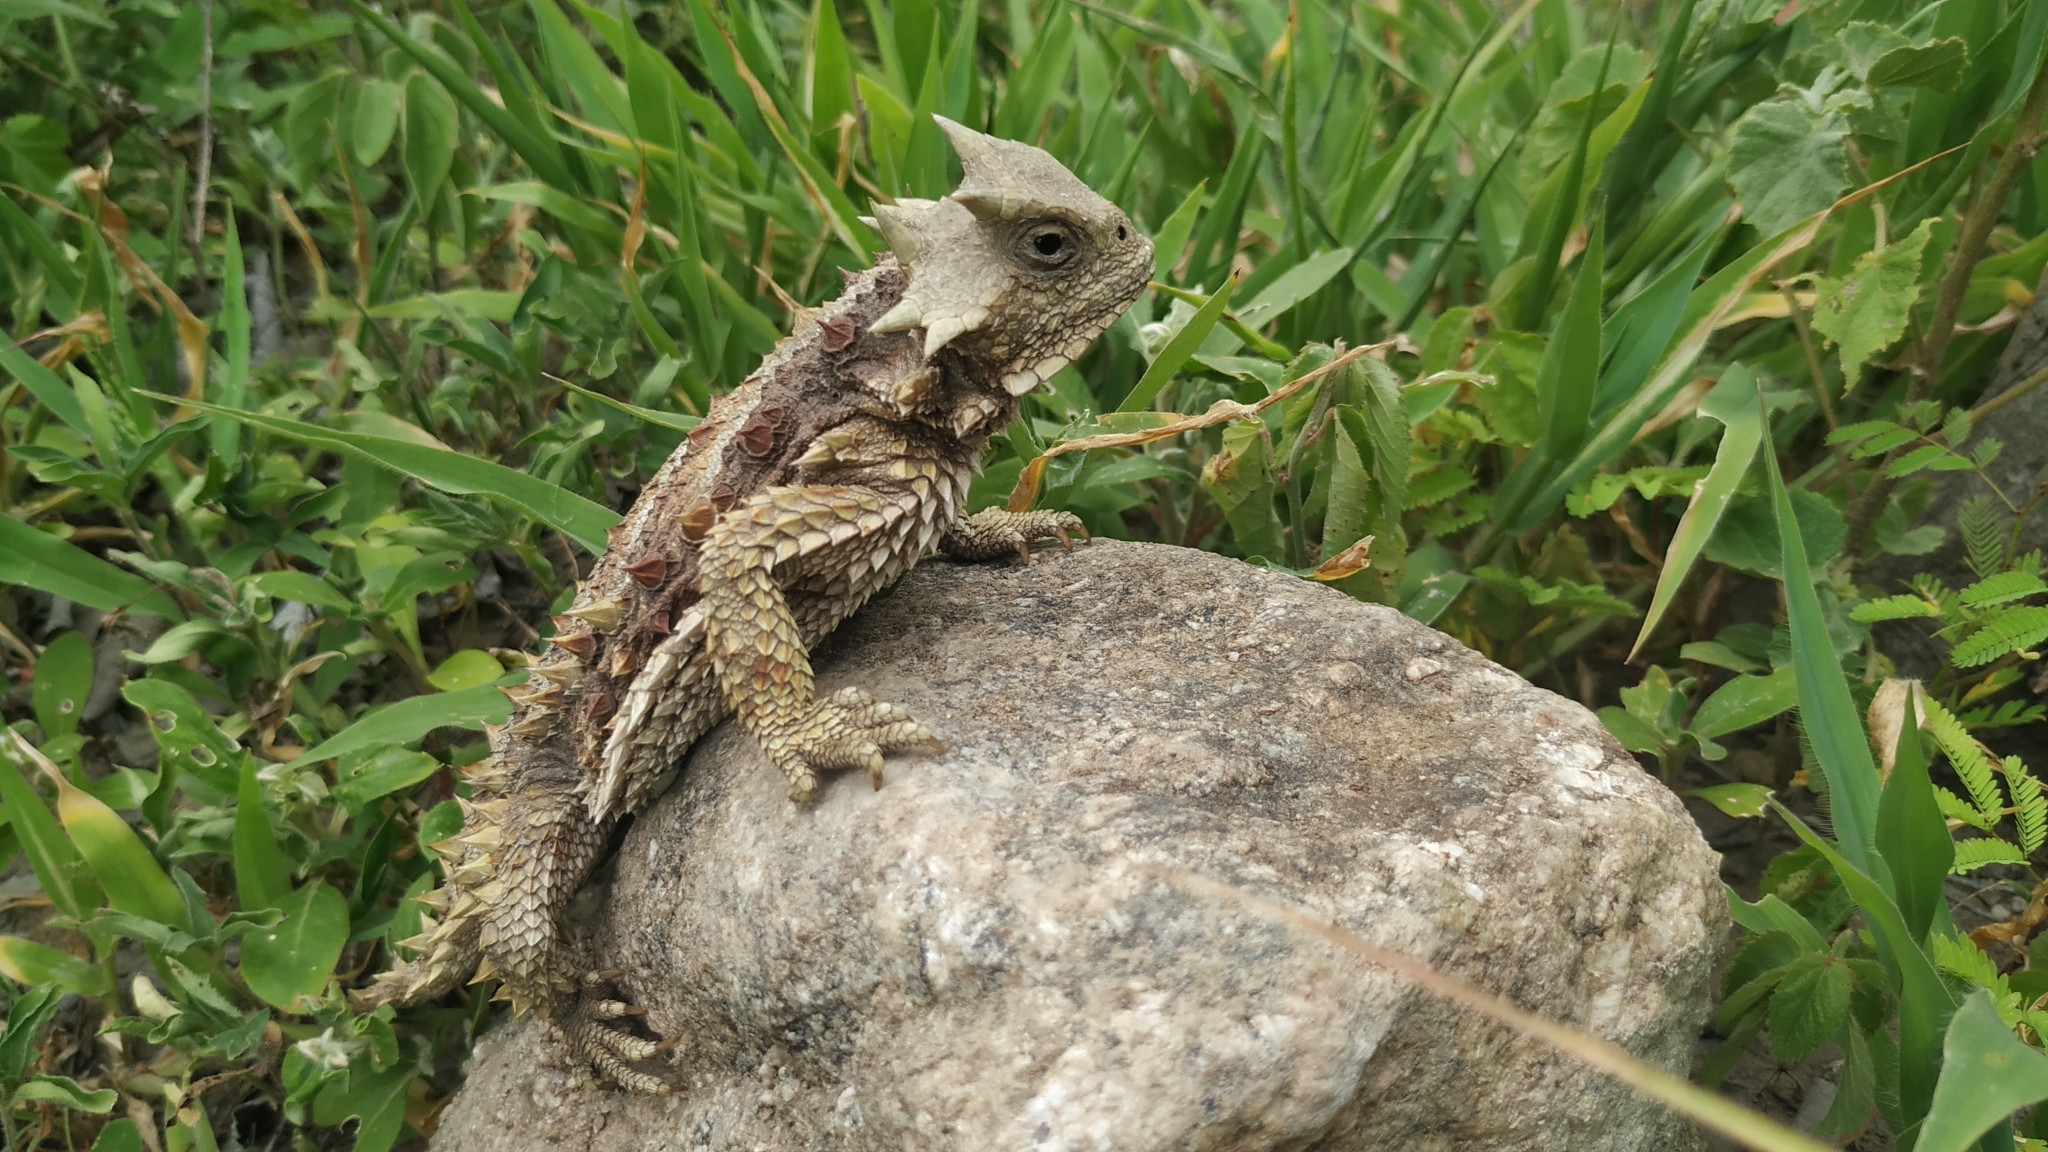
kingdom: Animalia
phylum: Chordata
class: Squamata
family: Phrynosomatidae
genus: Phrynosoma
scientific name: Phrynosoma asio
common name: Giant horned lizard
